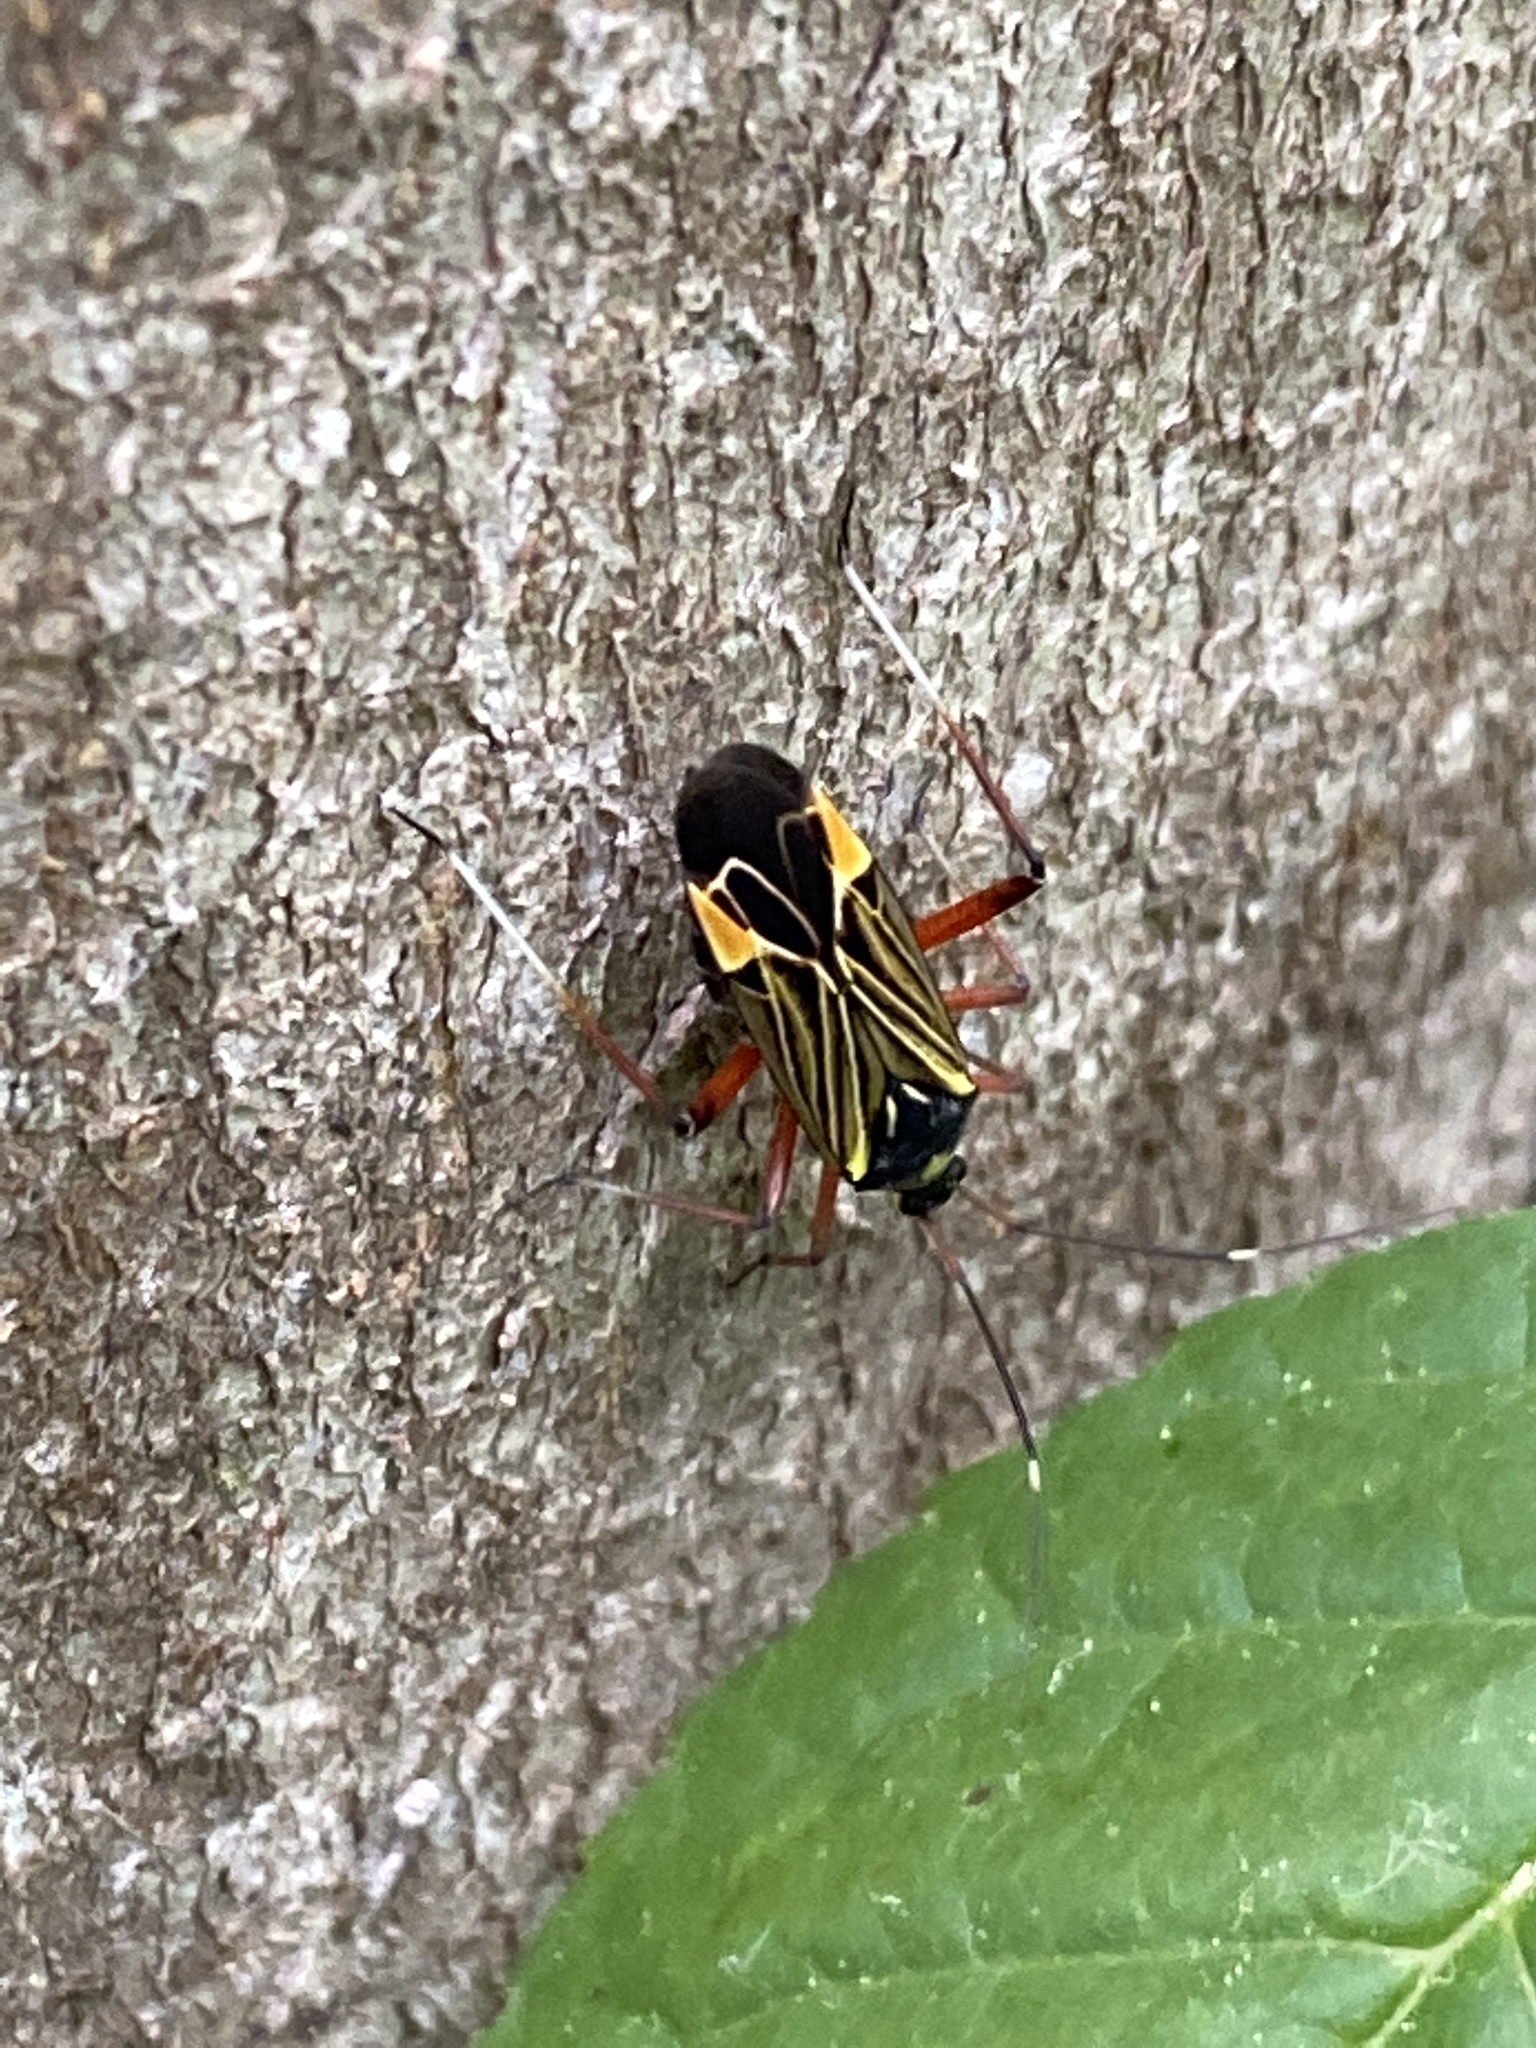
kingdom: Animalia
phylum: Arthropoda
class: Insecta
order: Hemiptera
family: Miridae
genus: Miris
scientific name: Miris striatus
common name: Fine streaked bugkin
